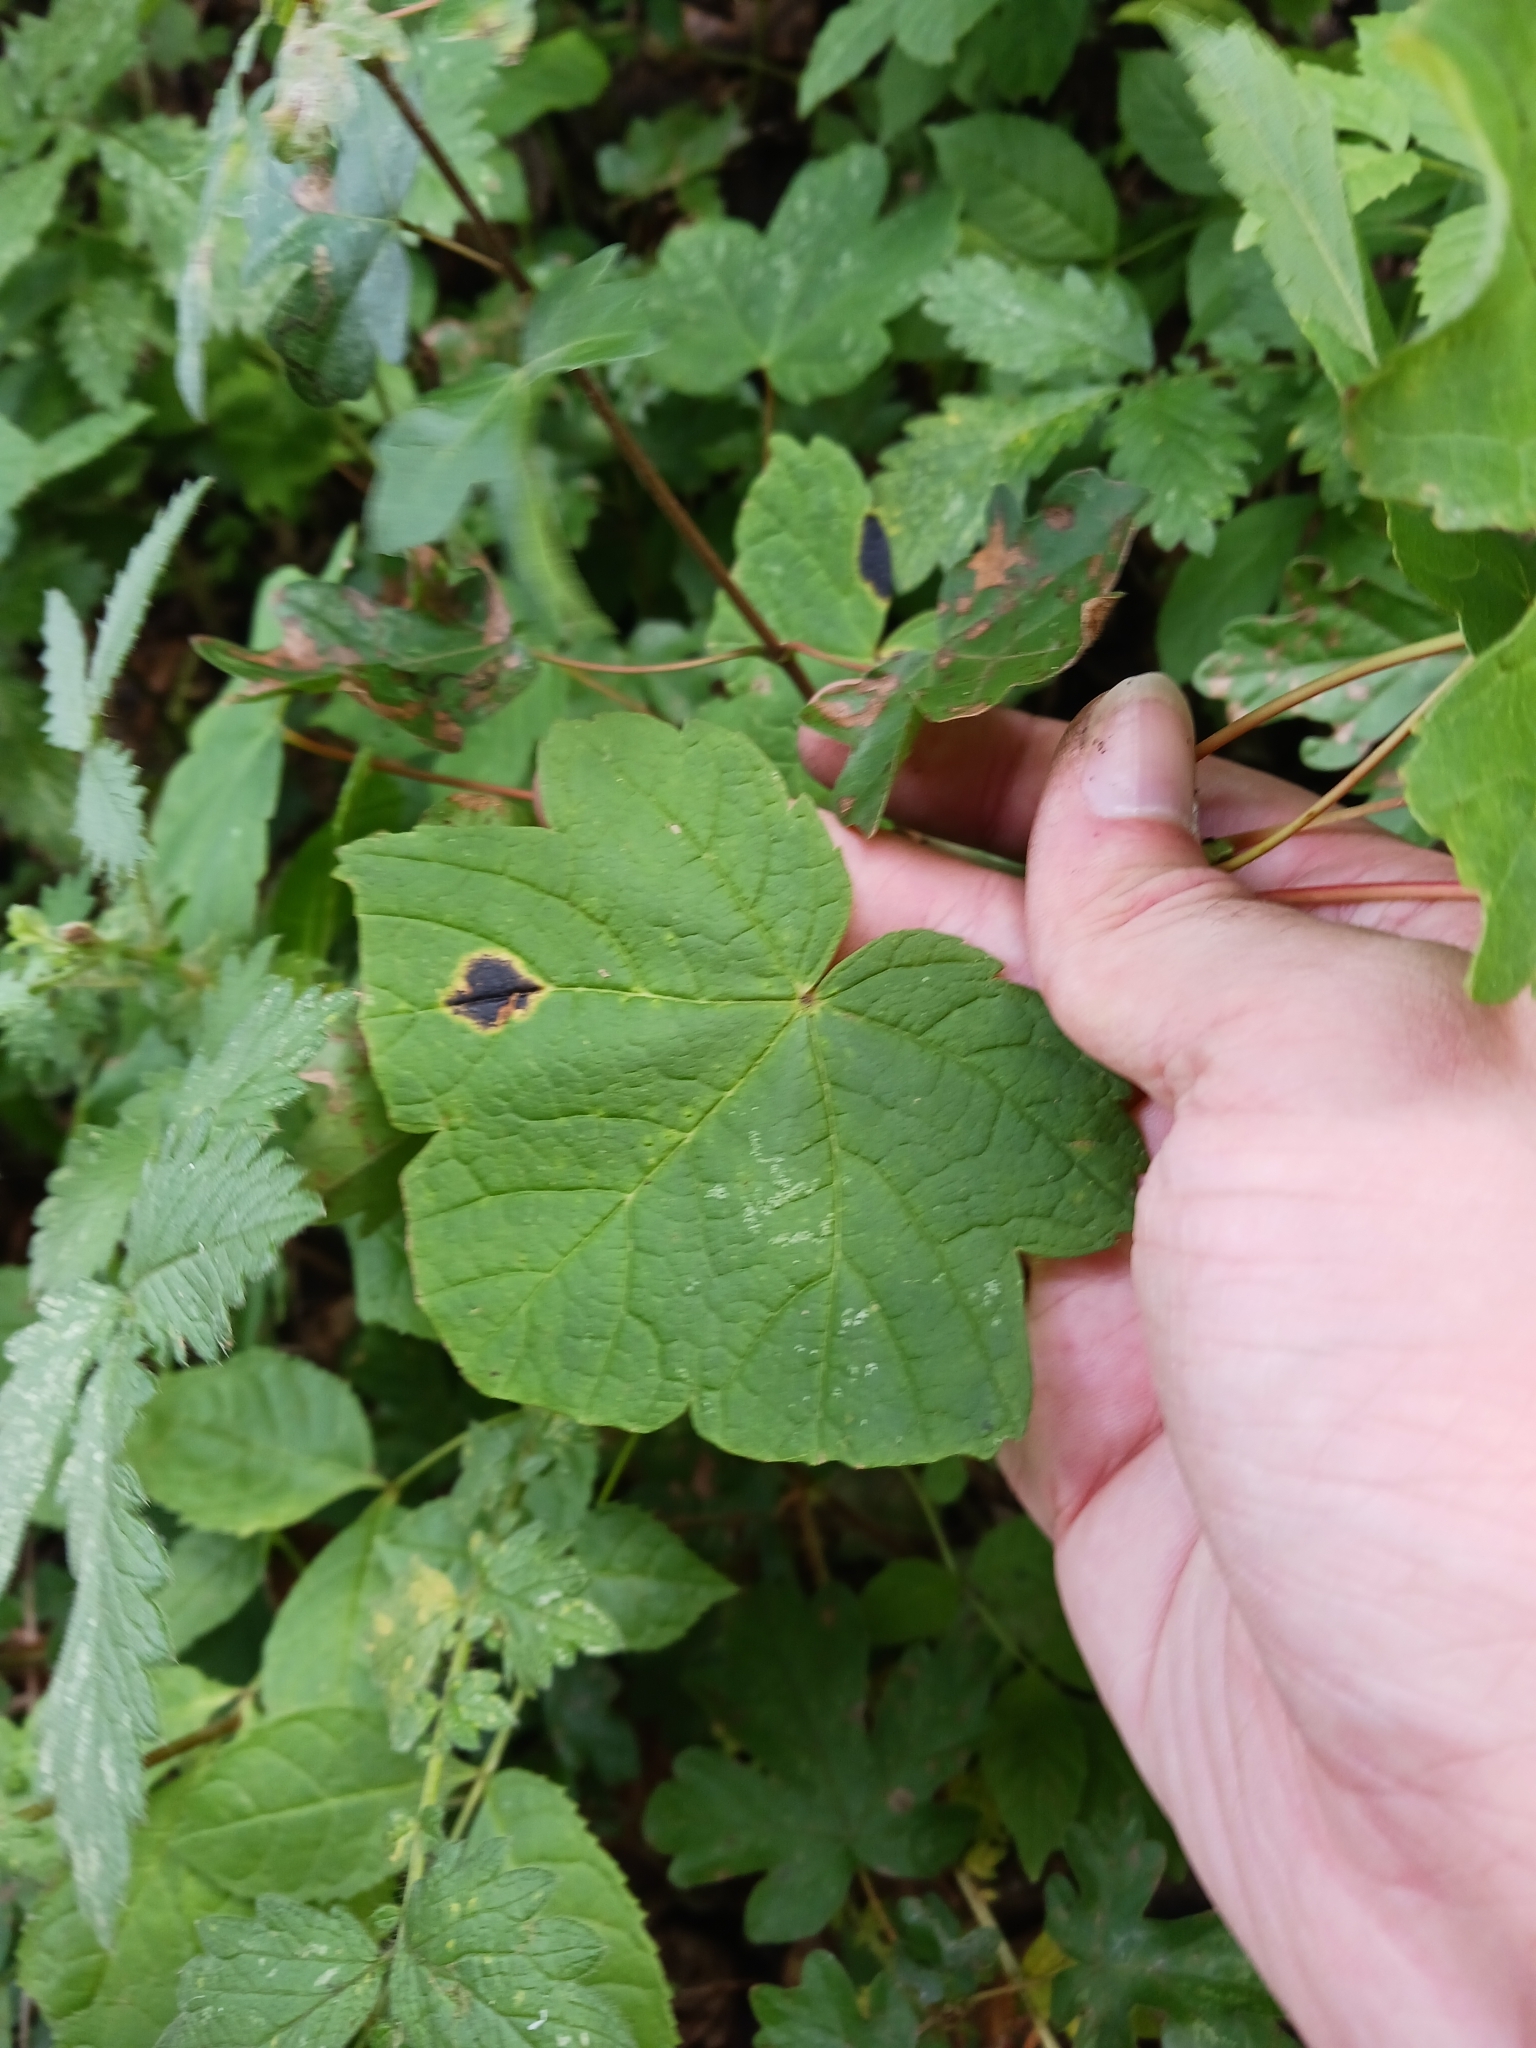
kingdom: Fungi
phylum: Ascomycota
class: Leotiomycetes
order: Rhytismatales
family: Rhytismataceae
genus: Rhytisma
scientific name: Rhytisma acerinum
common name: European tar spot
